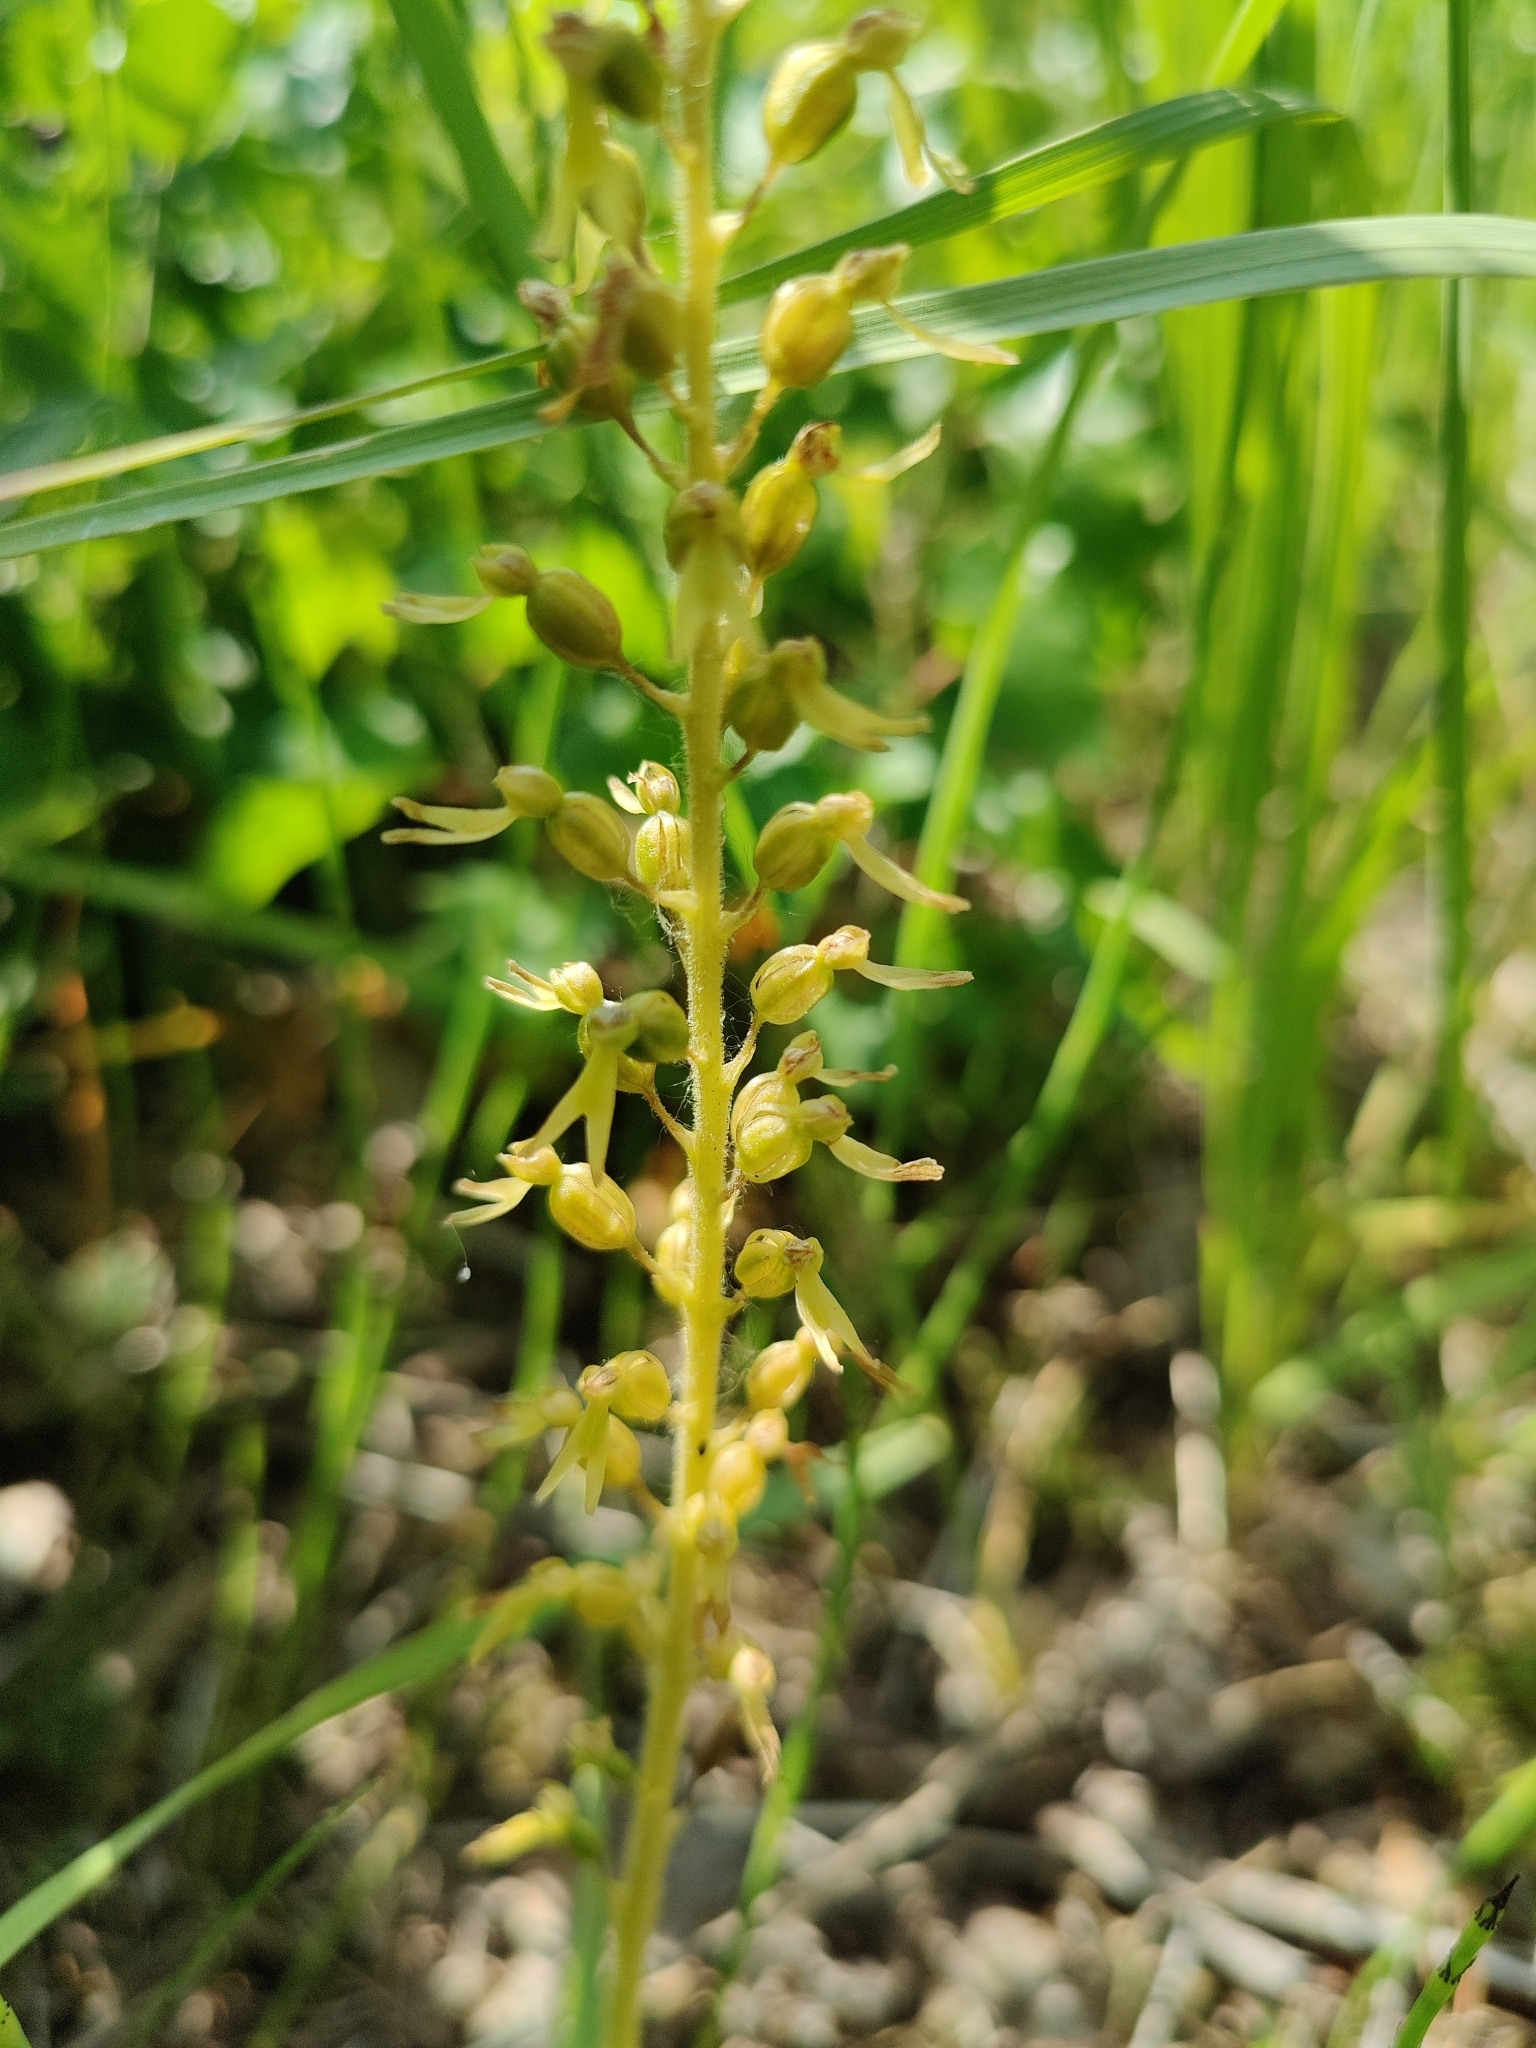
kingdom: Plantae
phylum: Tracheophyta
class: Liliopsida
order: Asparagales
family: Orchidaceae
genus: Neottia
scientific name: Neottia ovata
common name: Common twayblade
